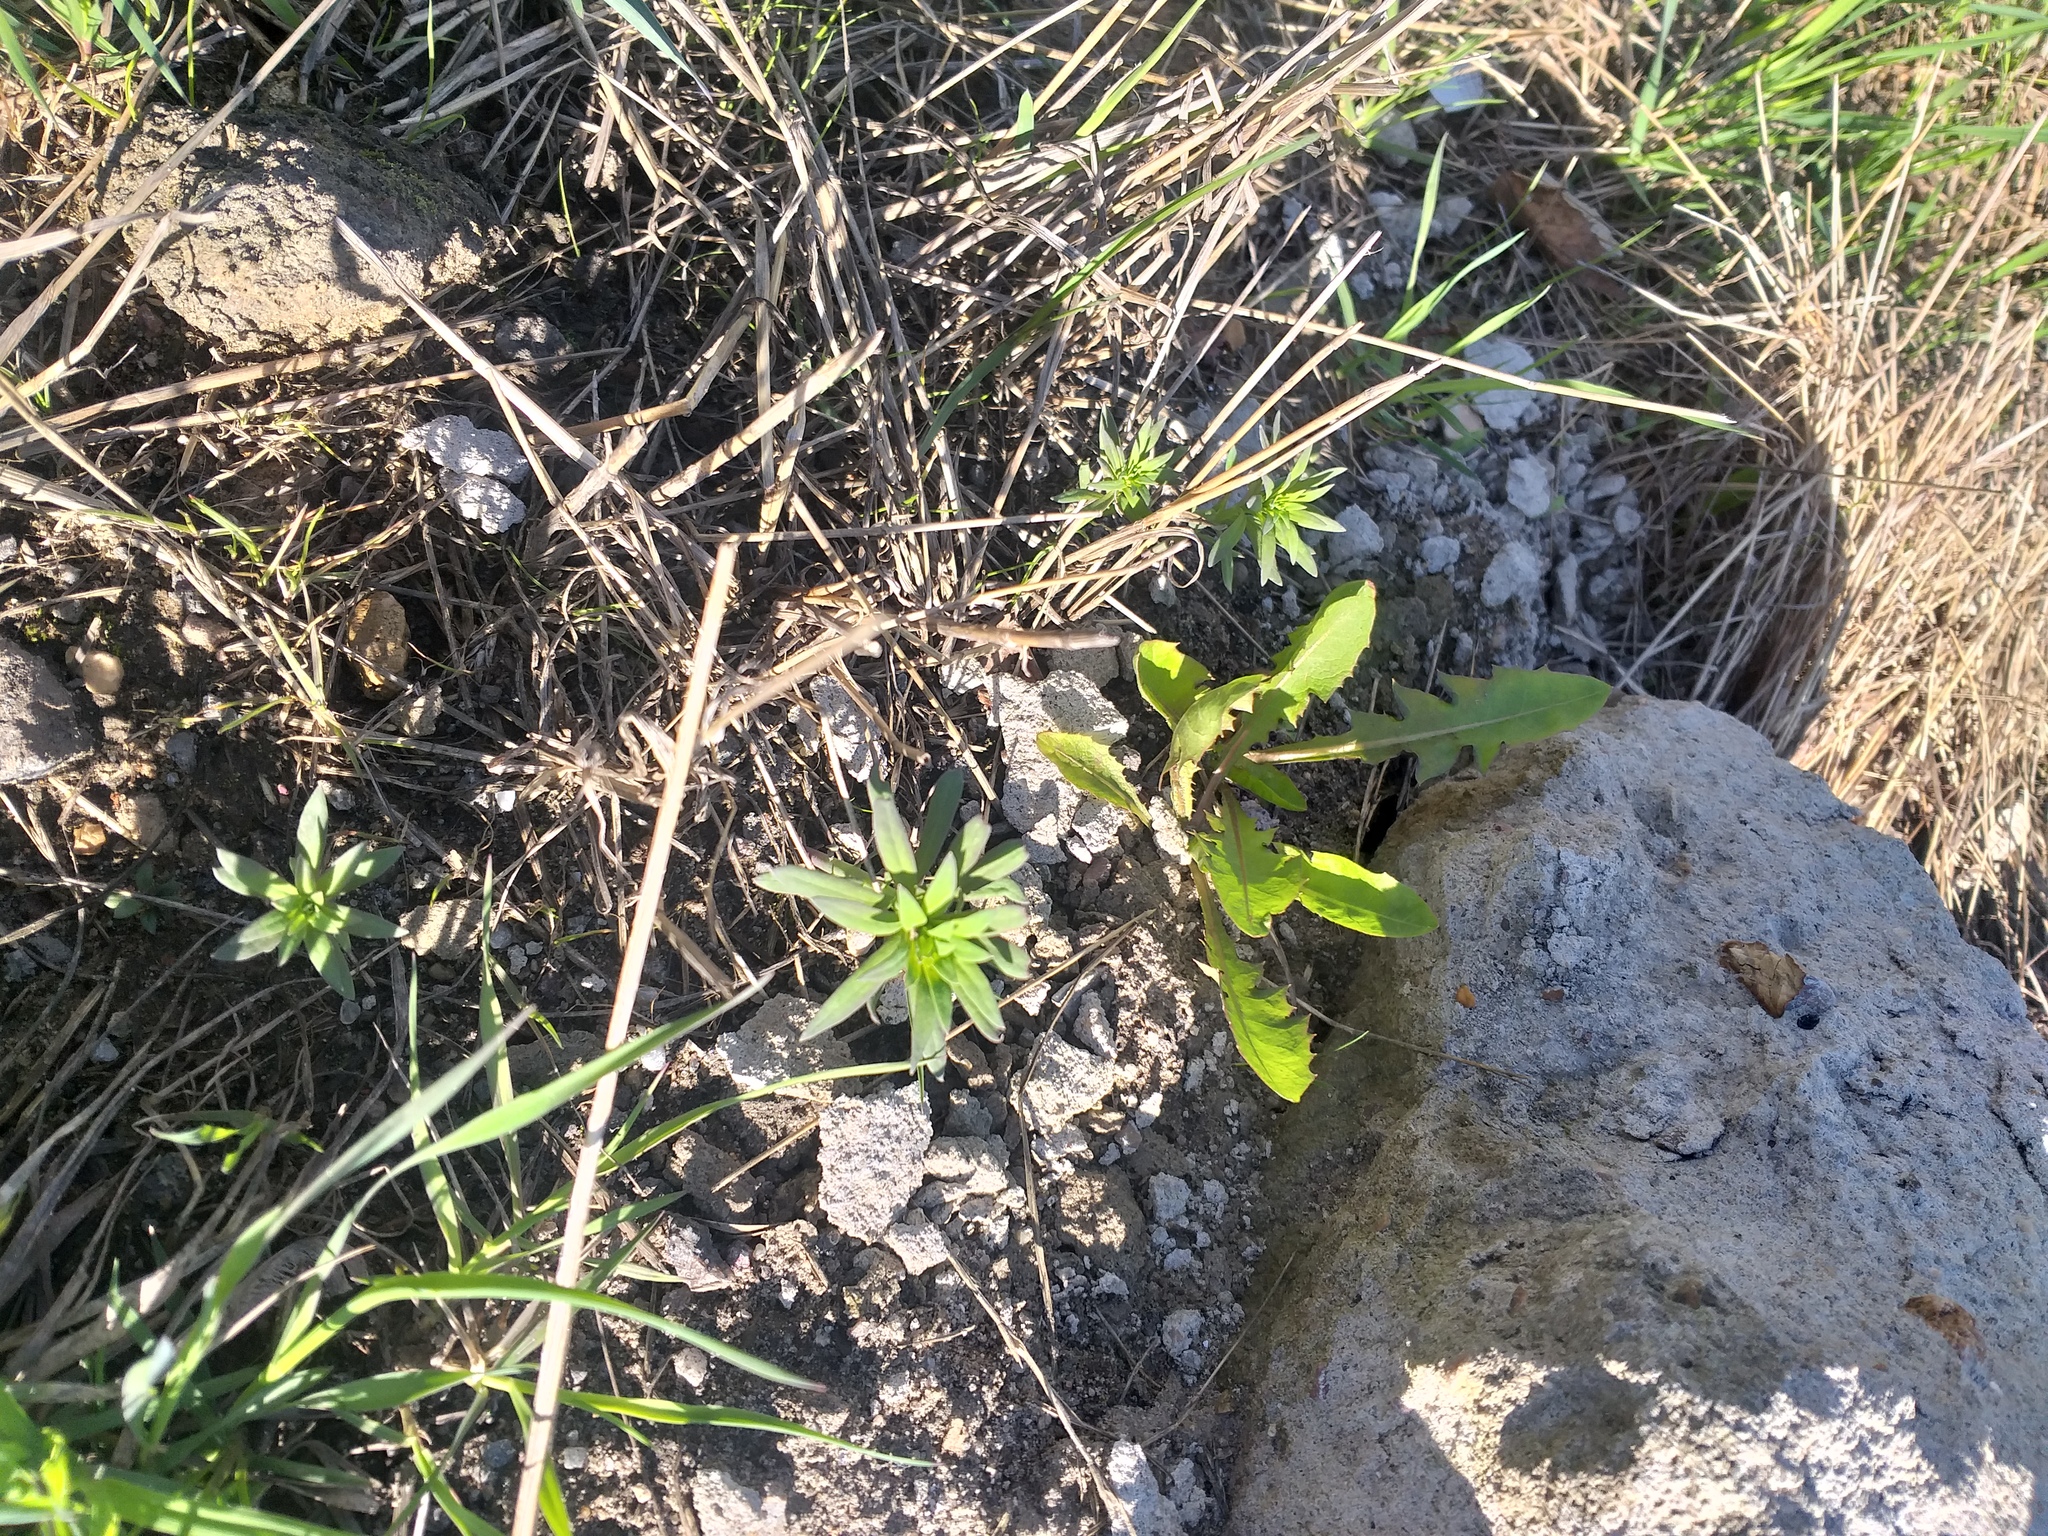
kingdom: Plantae
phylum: Tracheophyta
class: Magnoliopsida
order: Lamiales
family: Plantaginaceae
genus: Linaria
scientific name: Linaria vulgaris
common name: Butter and eggs
